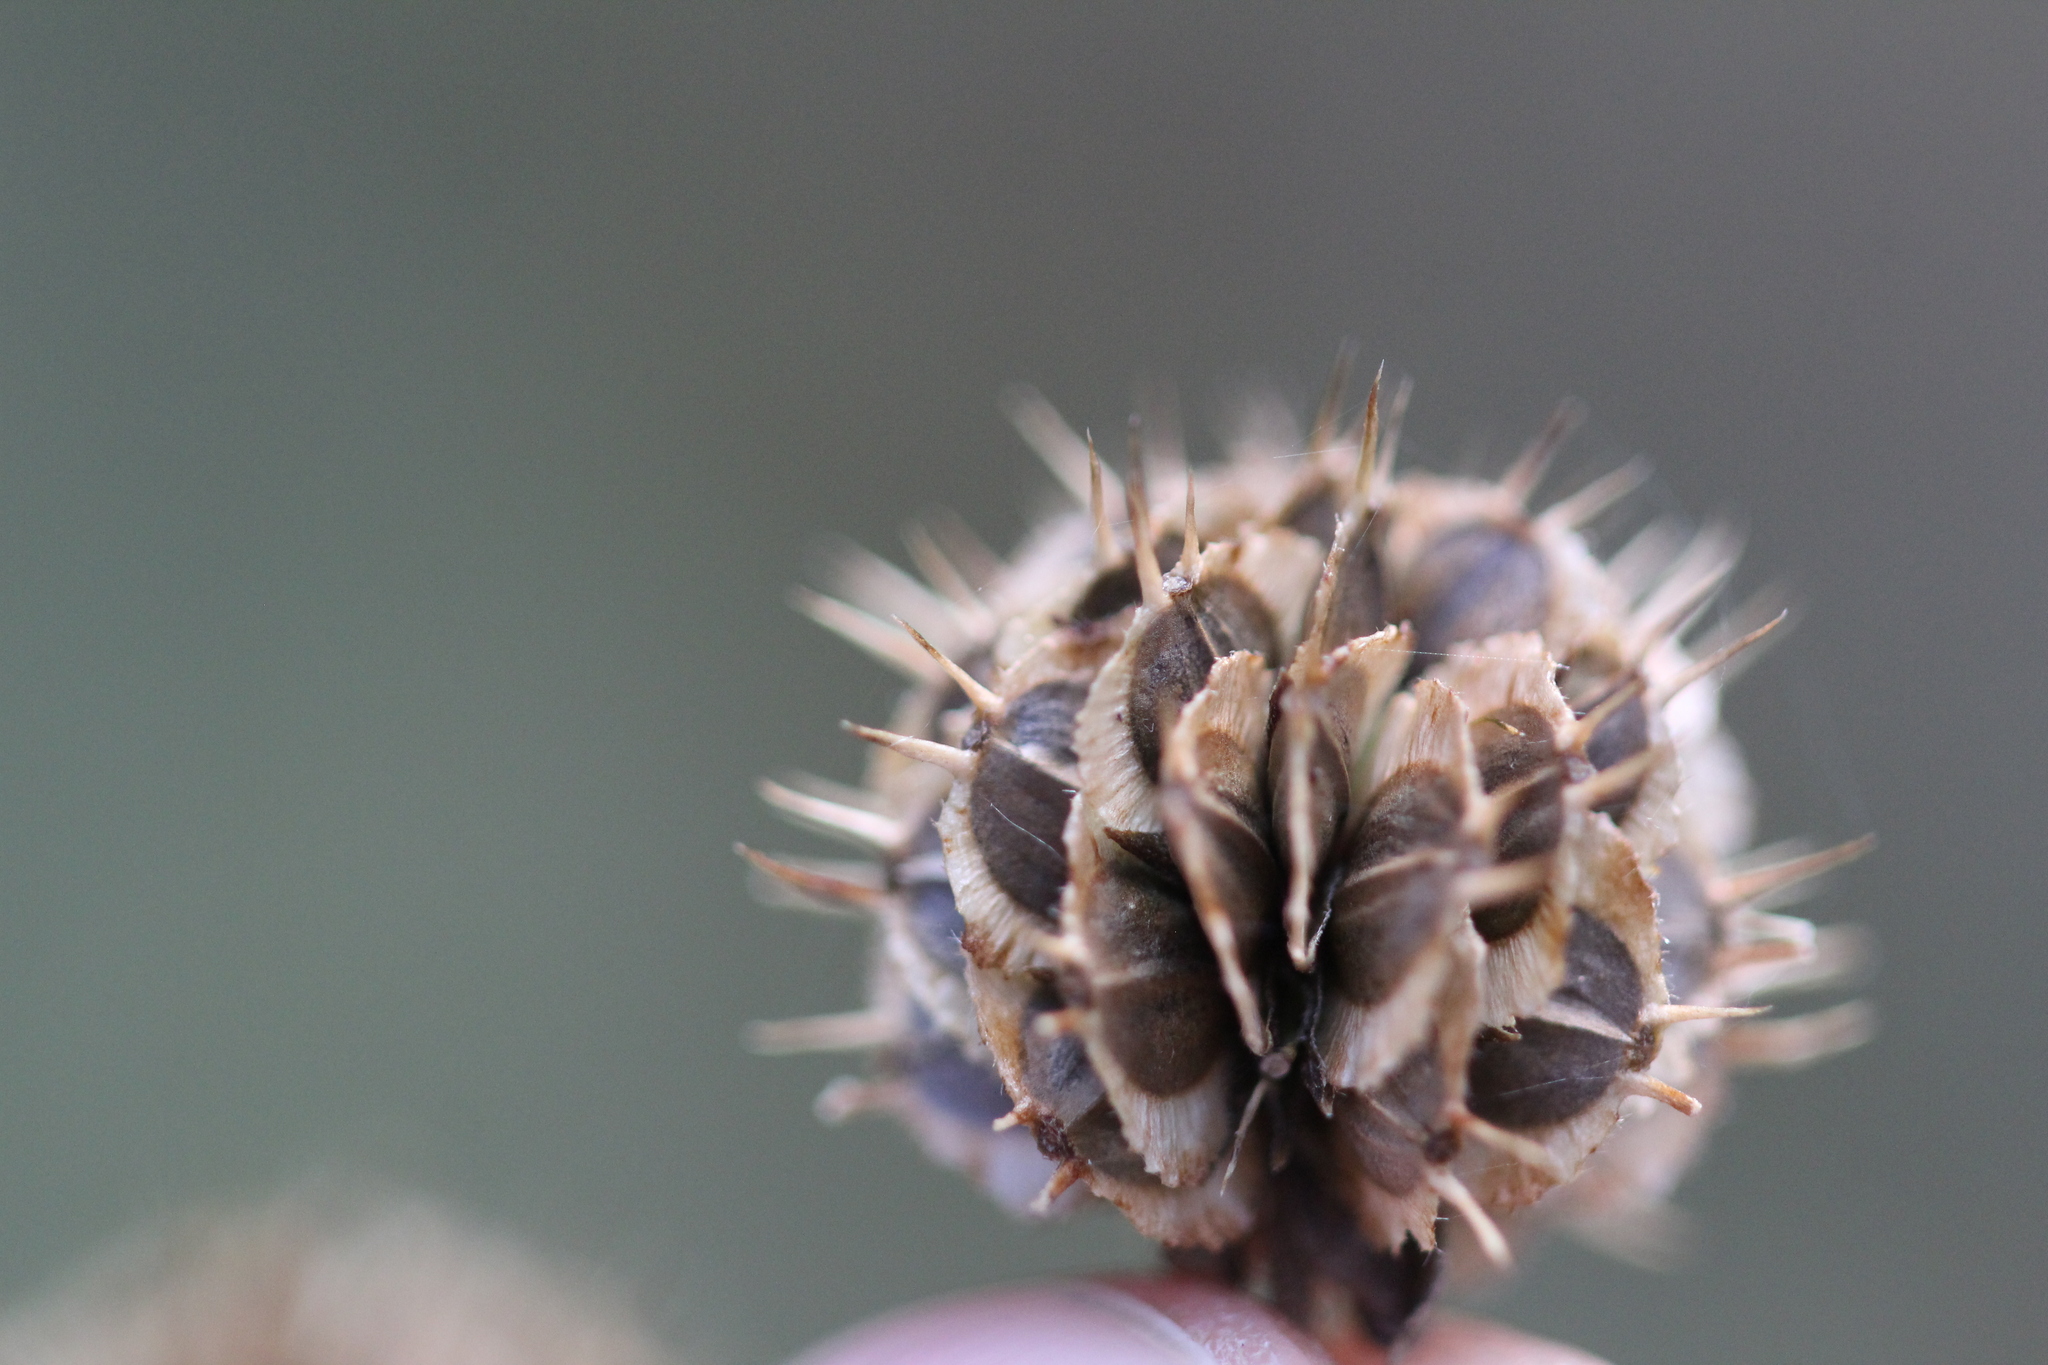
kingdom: Plantae
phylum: Tracheophyta
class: Magnoliopsida
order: Asterales
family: Asteraceae
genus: Verbesina
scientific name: Verbesina alternifolia
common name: Wingstem
